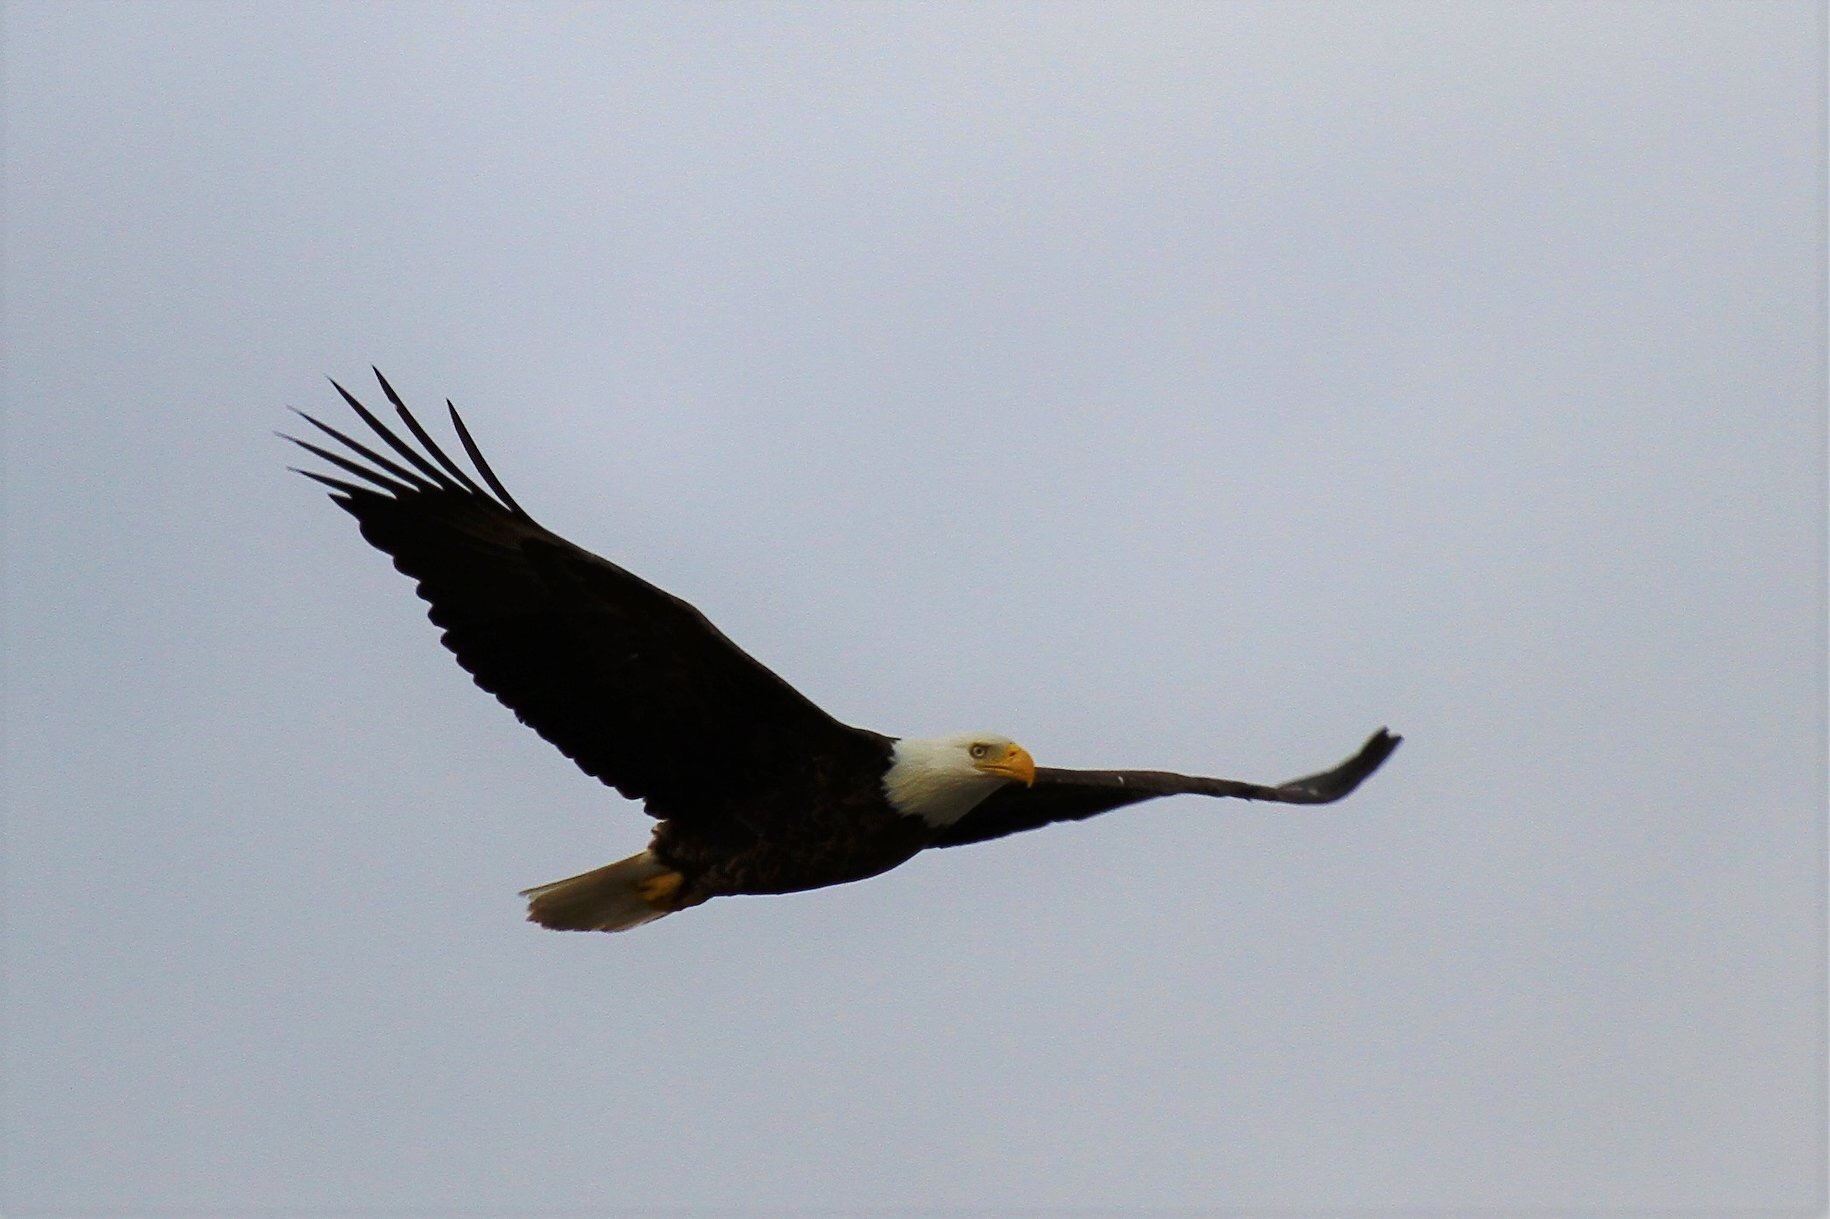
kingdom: Animalia
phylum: Chordata
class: Aves
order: Accipitriformes
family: Accipitridae
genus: Haliaeetus
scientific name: Haliaeetus leucocephalus
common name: Bald eagle
